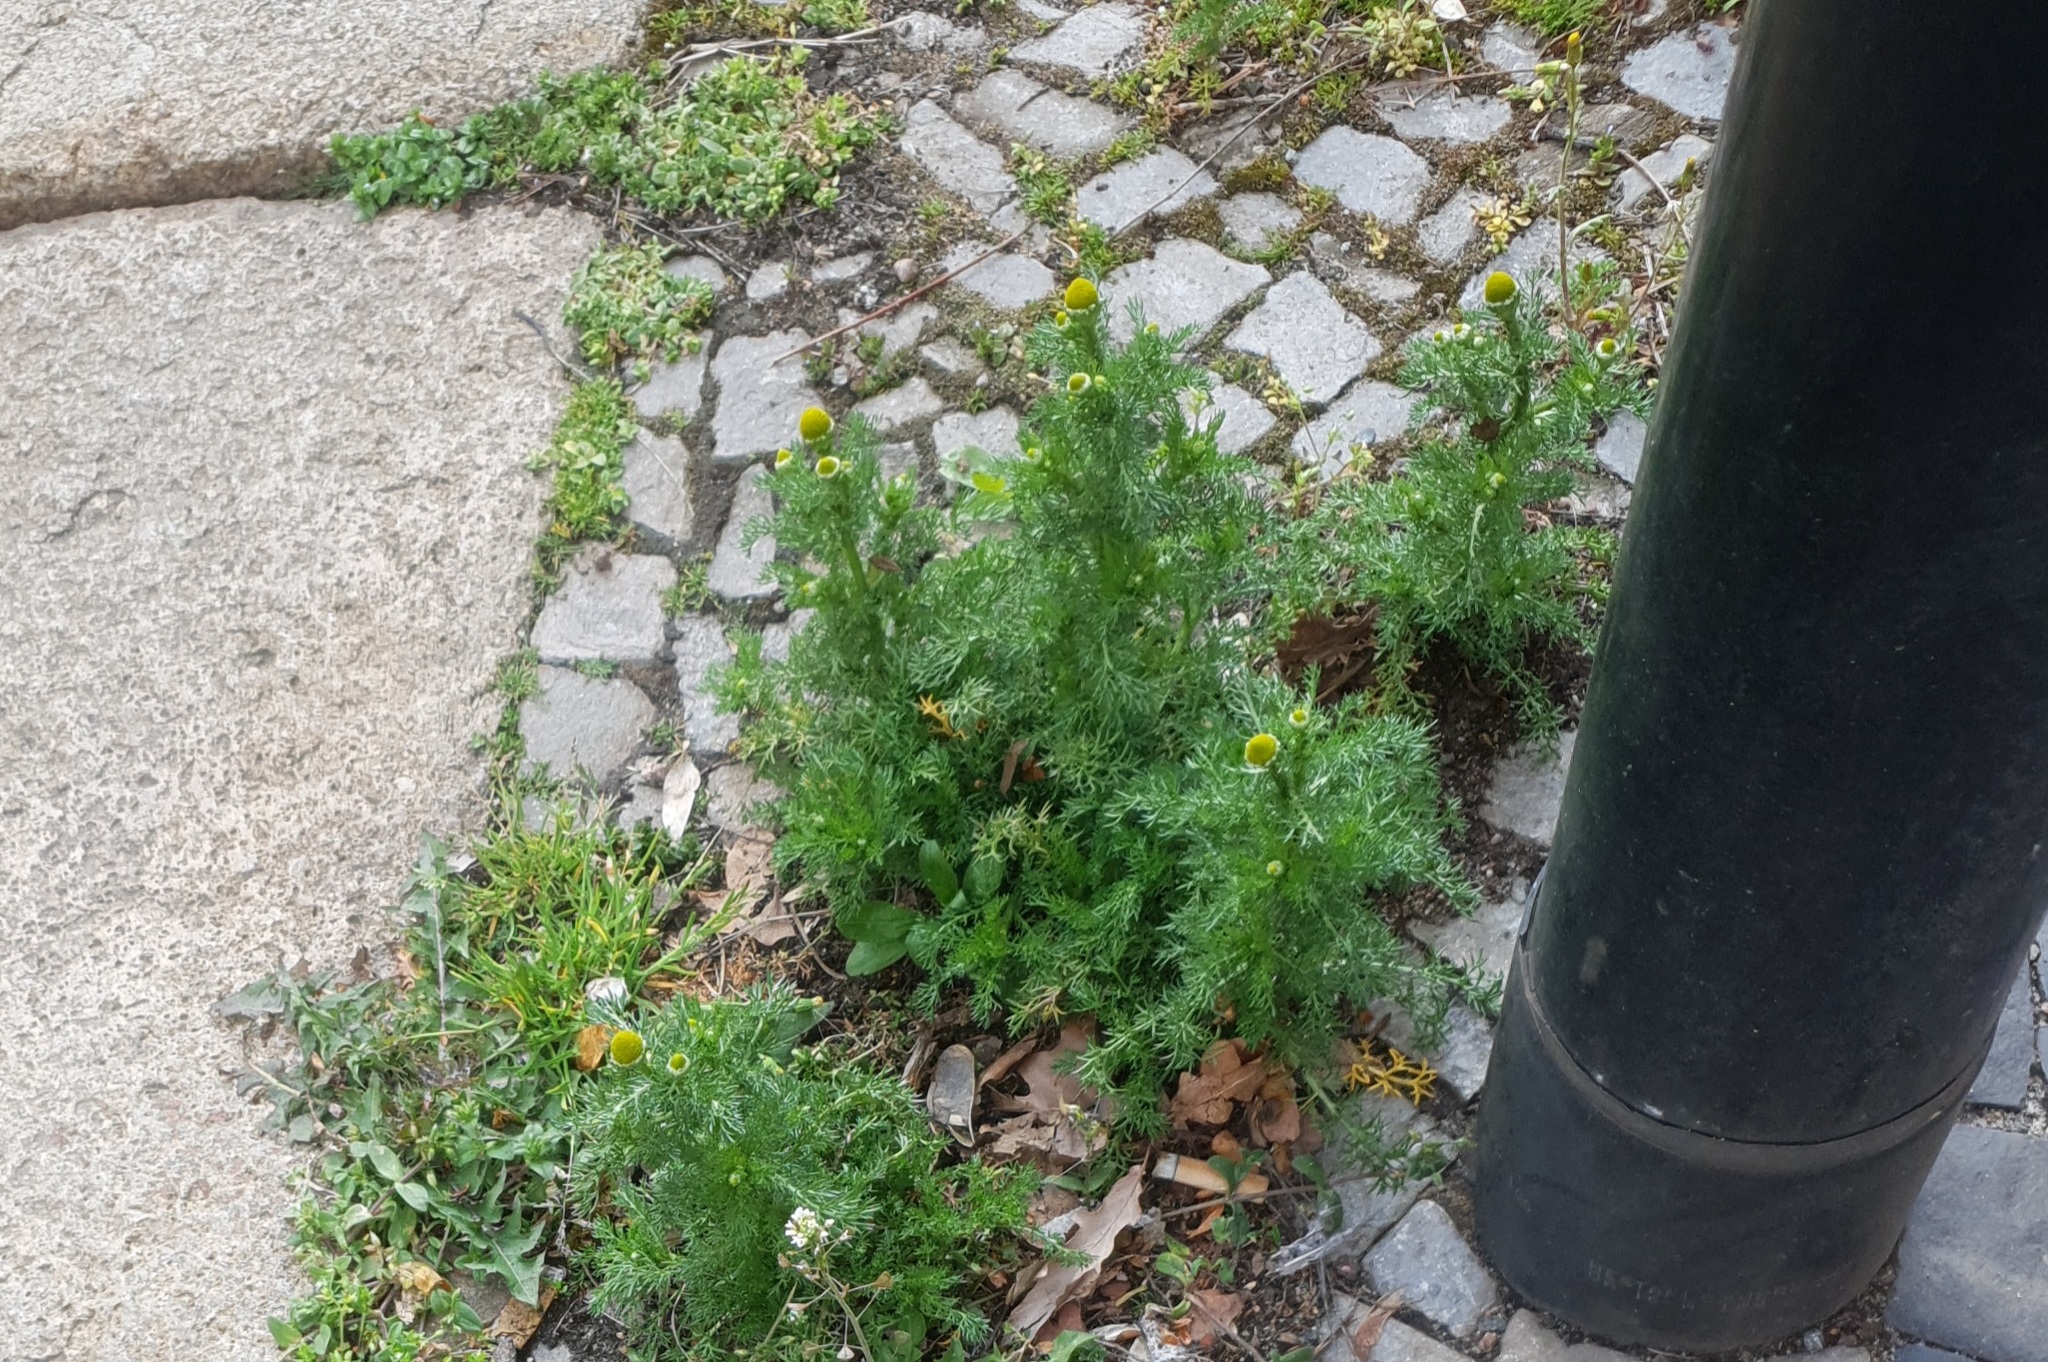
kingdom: Plantae
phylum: Tracheophyta
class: Magnoliopsida
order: Asterales
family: Asteraceae
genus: Matricaria
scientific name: Matricaria discoidea
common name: Disc mayweed
